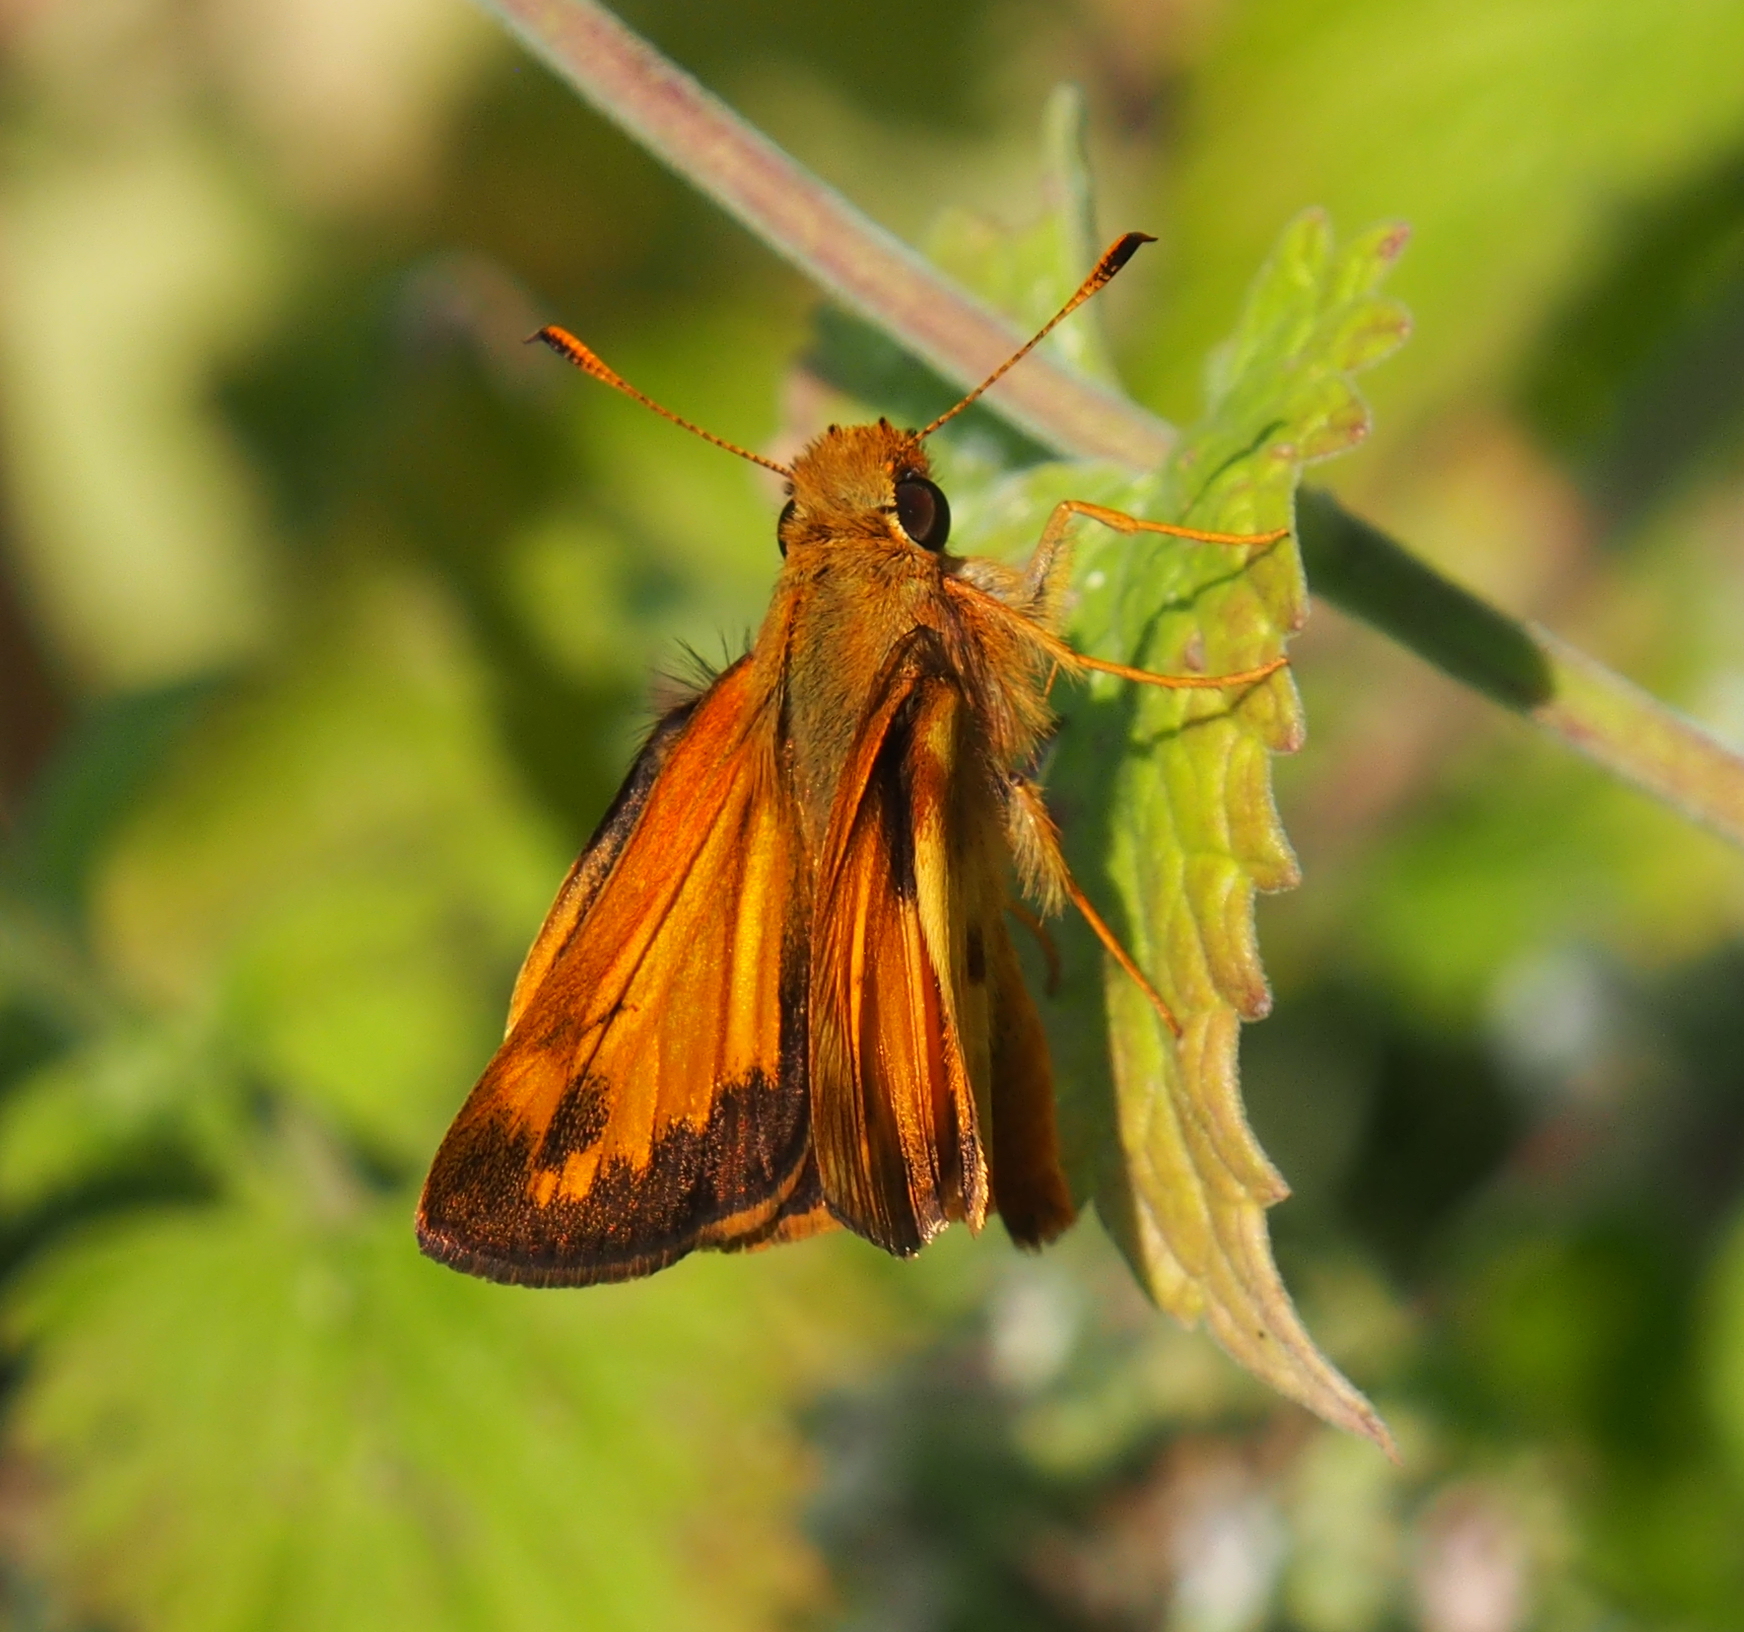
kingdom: Animalia
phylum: Arthropoda
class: Insecta
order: Lepidoptera
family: Hesperiidae
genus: Lon
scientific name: Lon zabulon
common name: Zabulon skipper
